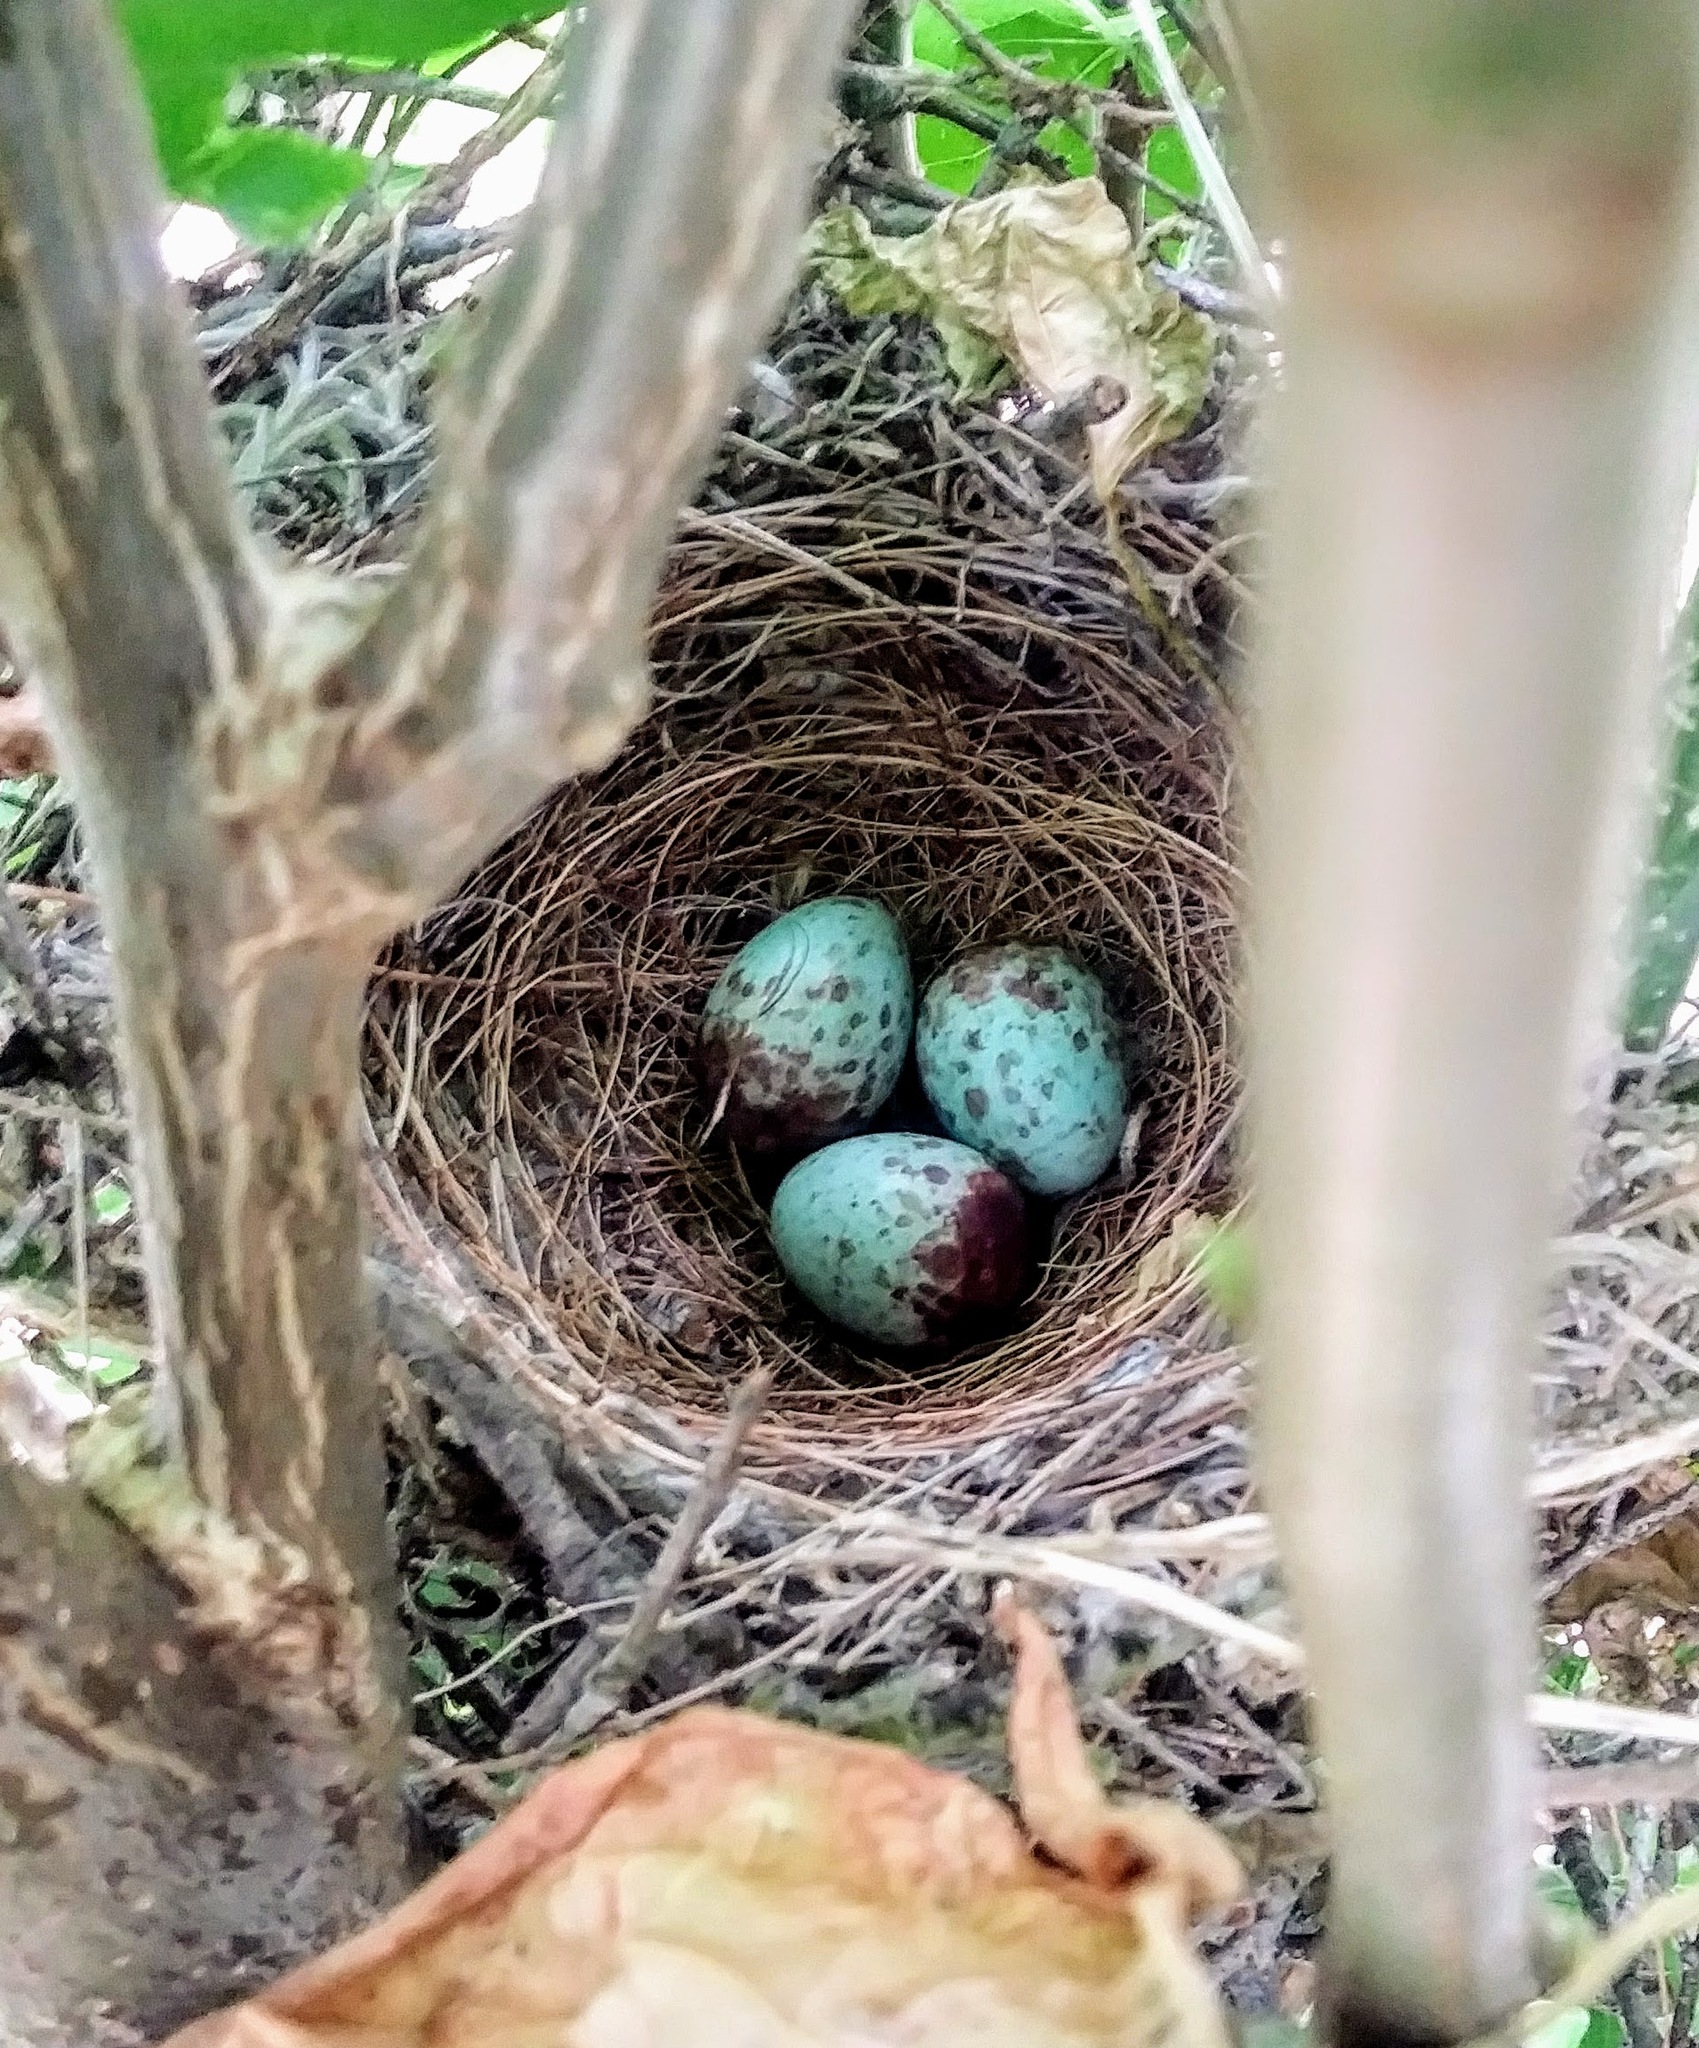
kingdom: Animalia
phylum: Chordata
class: Aves
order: Passeriformes
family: Mimidae
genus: Mimus
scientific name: Mimus polyglottos
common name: Northern mockingbird
